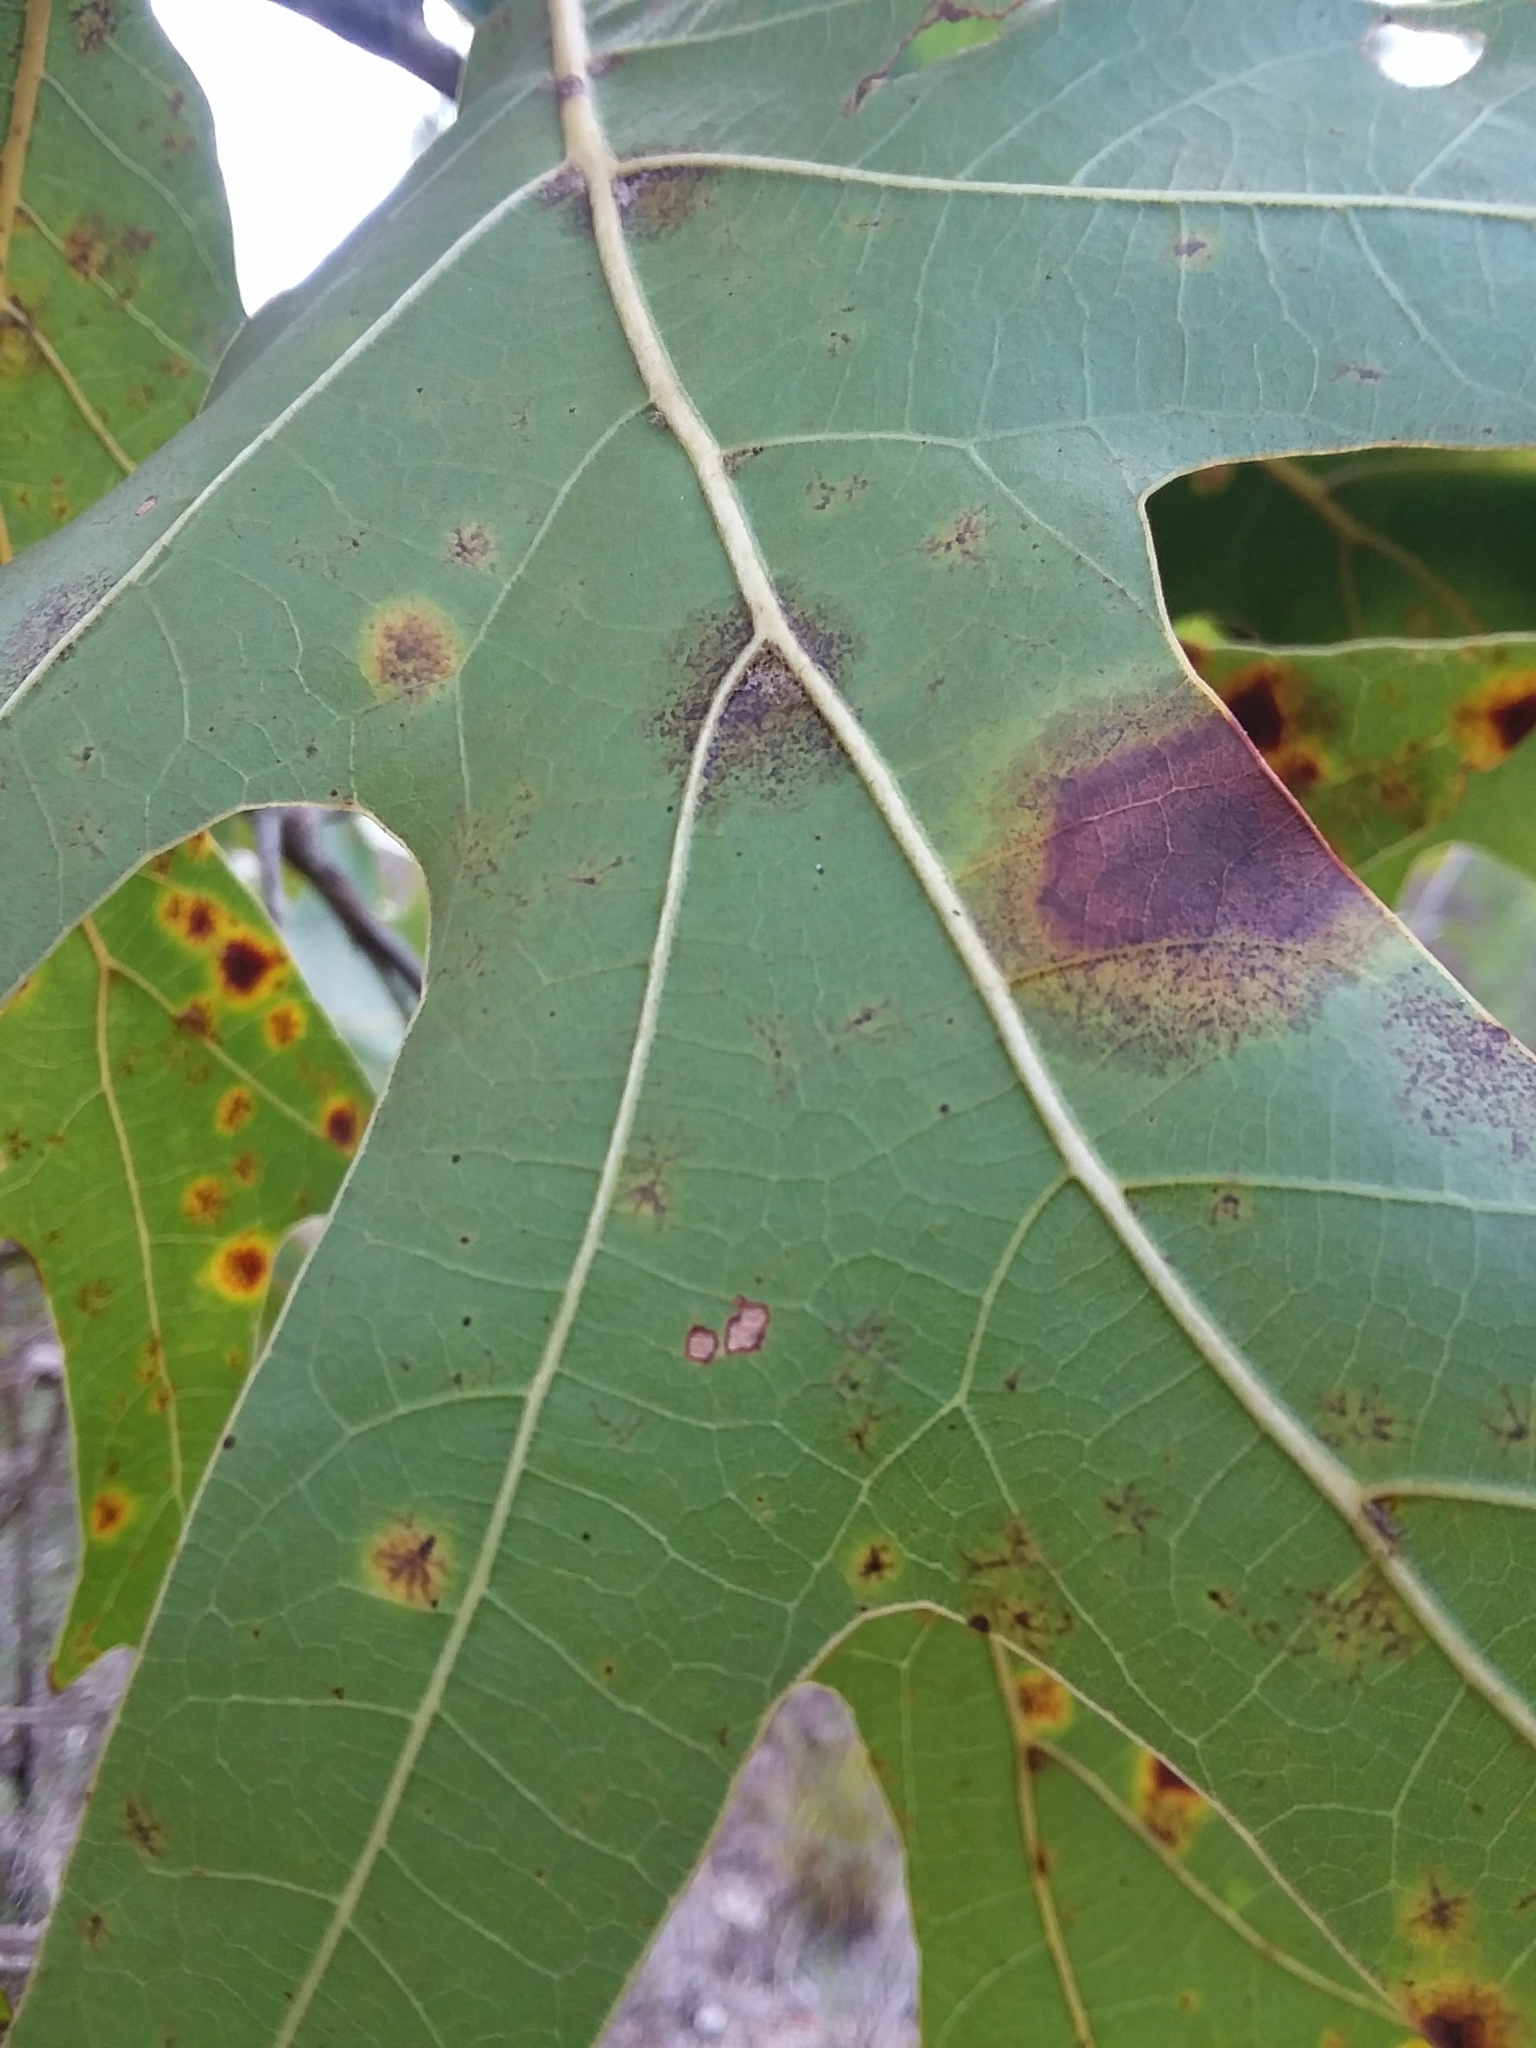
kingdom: Plantae
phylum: Tracheophyta
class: Magnoliopsida
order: Fagales
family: Fagaceae
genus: Quercus
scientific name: Quercus laevis
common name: Turkey oak
